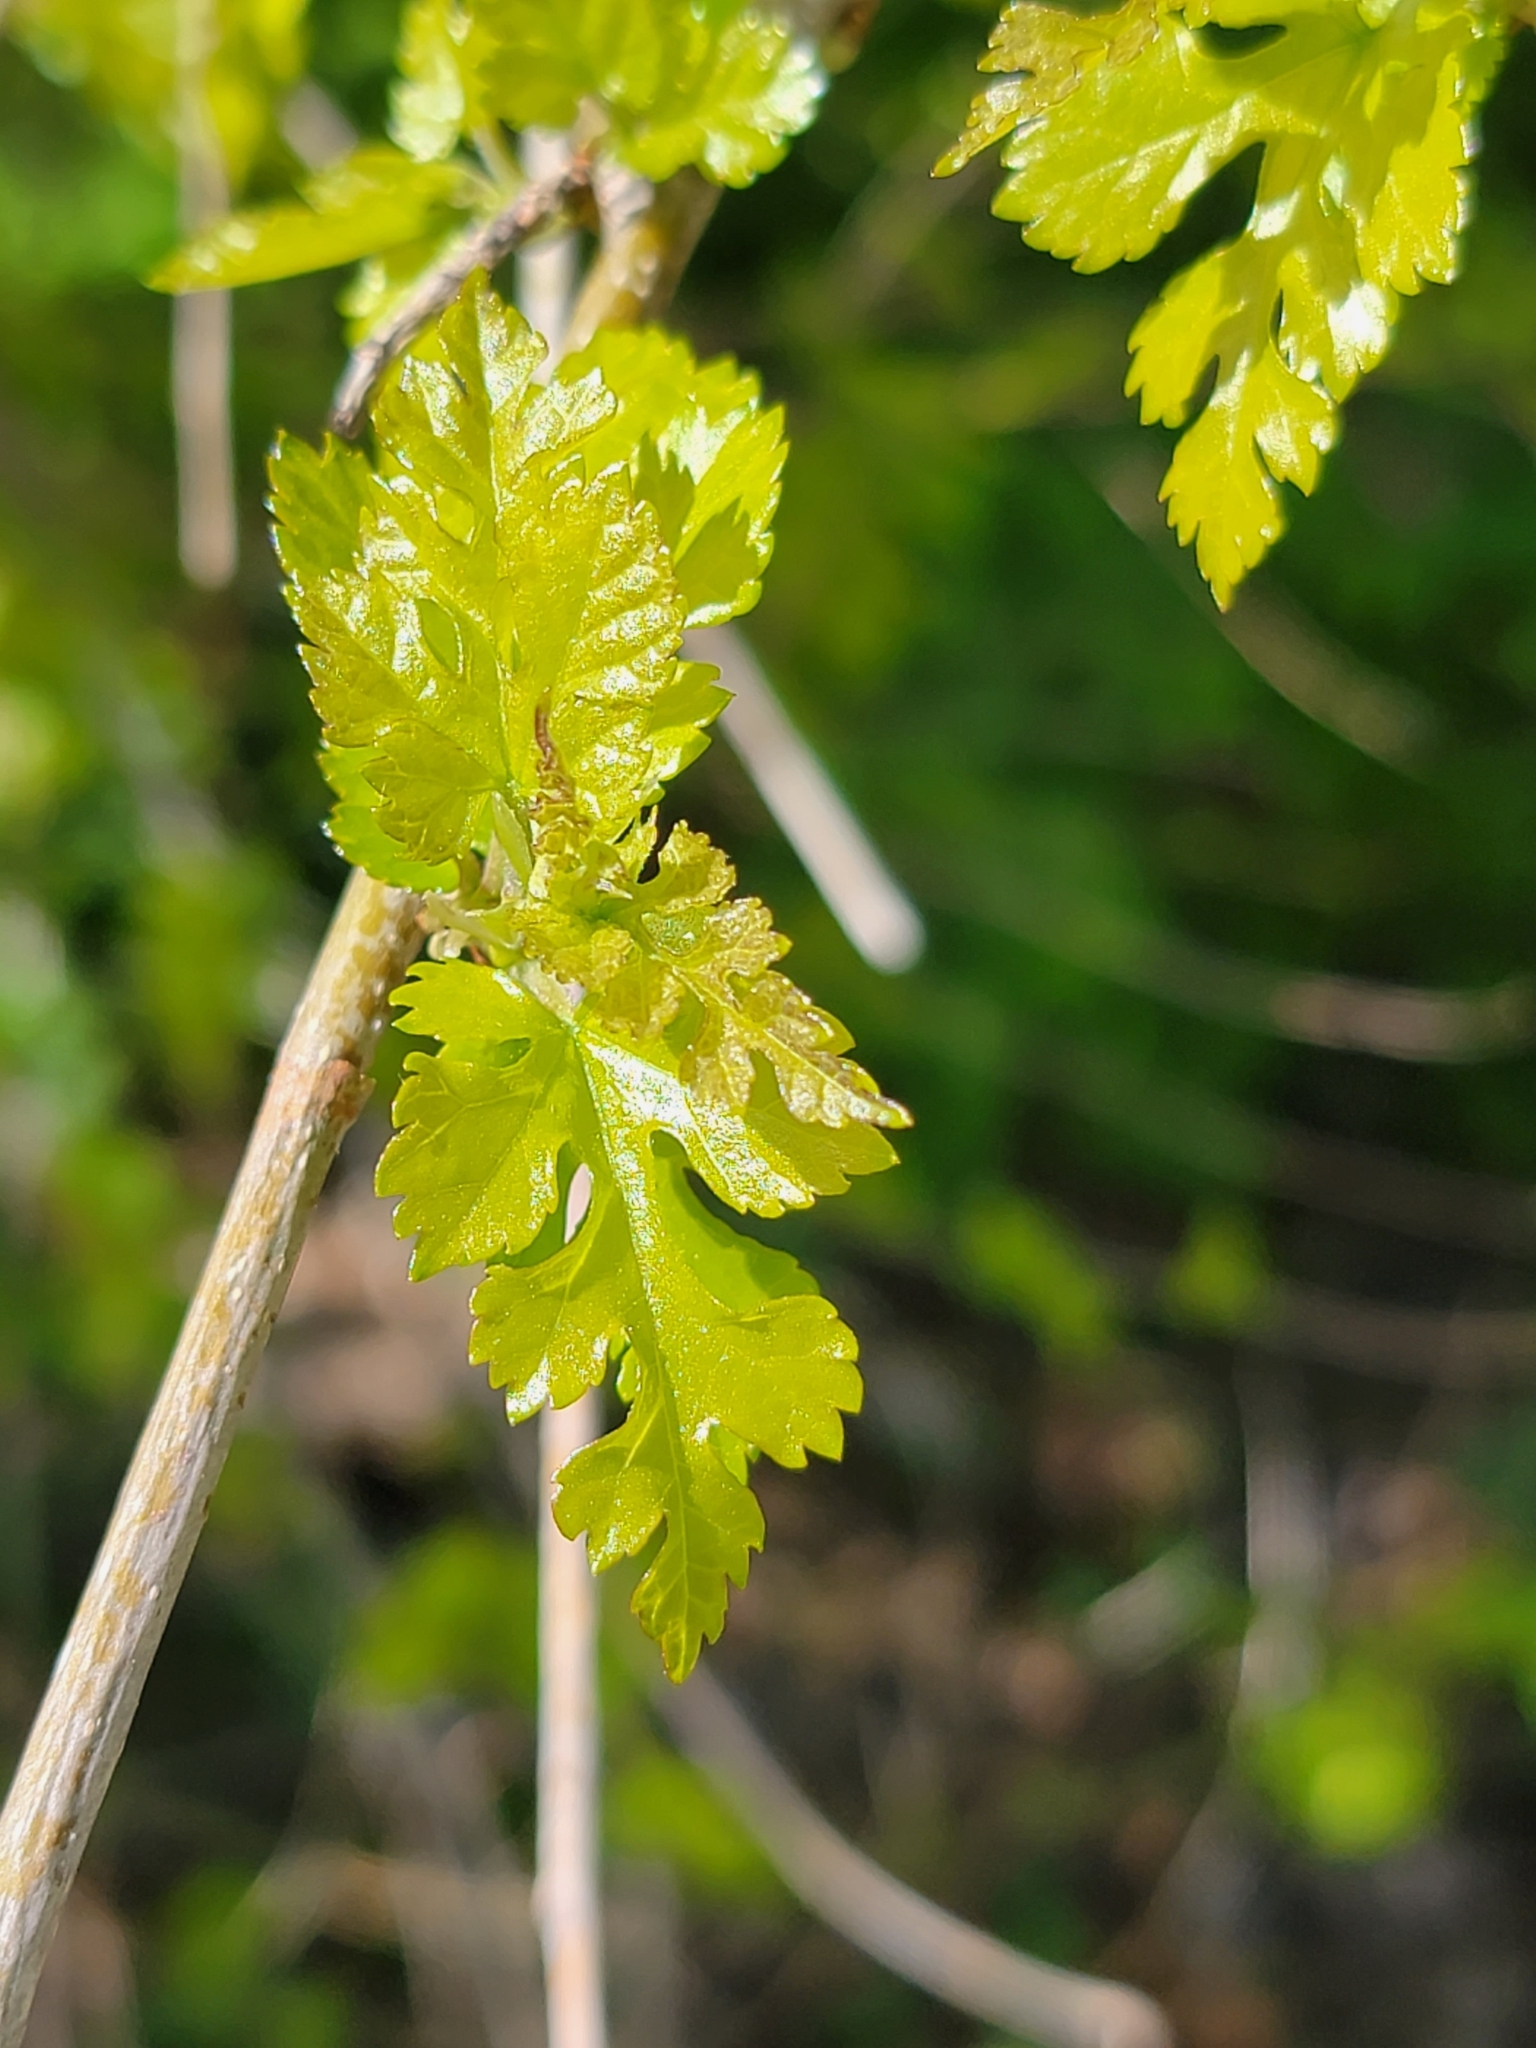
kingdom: Plantae
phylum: Tracheophyta
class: Magnoliopsida
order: Rosales
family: Moraceae
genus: Morus
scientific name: Morus alba
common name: White mulberry
